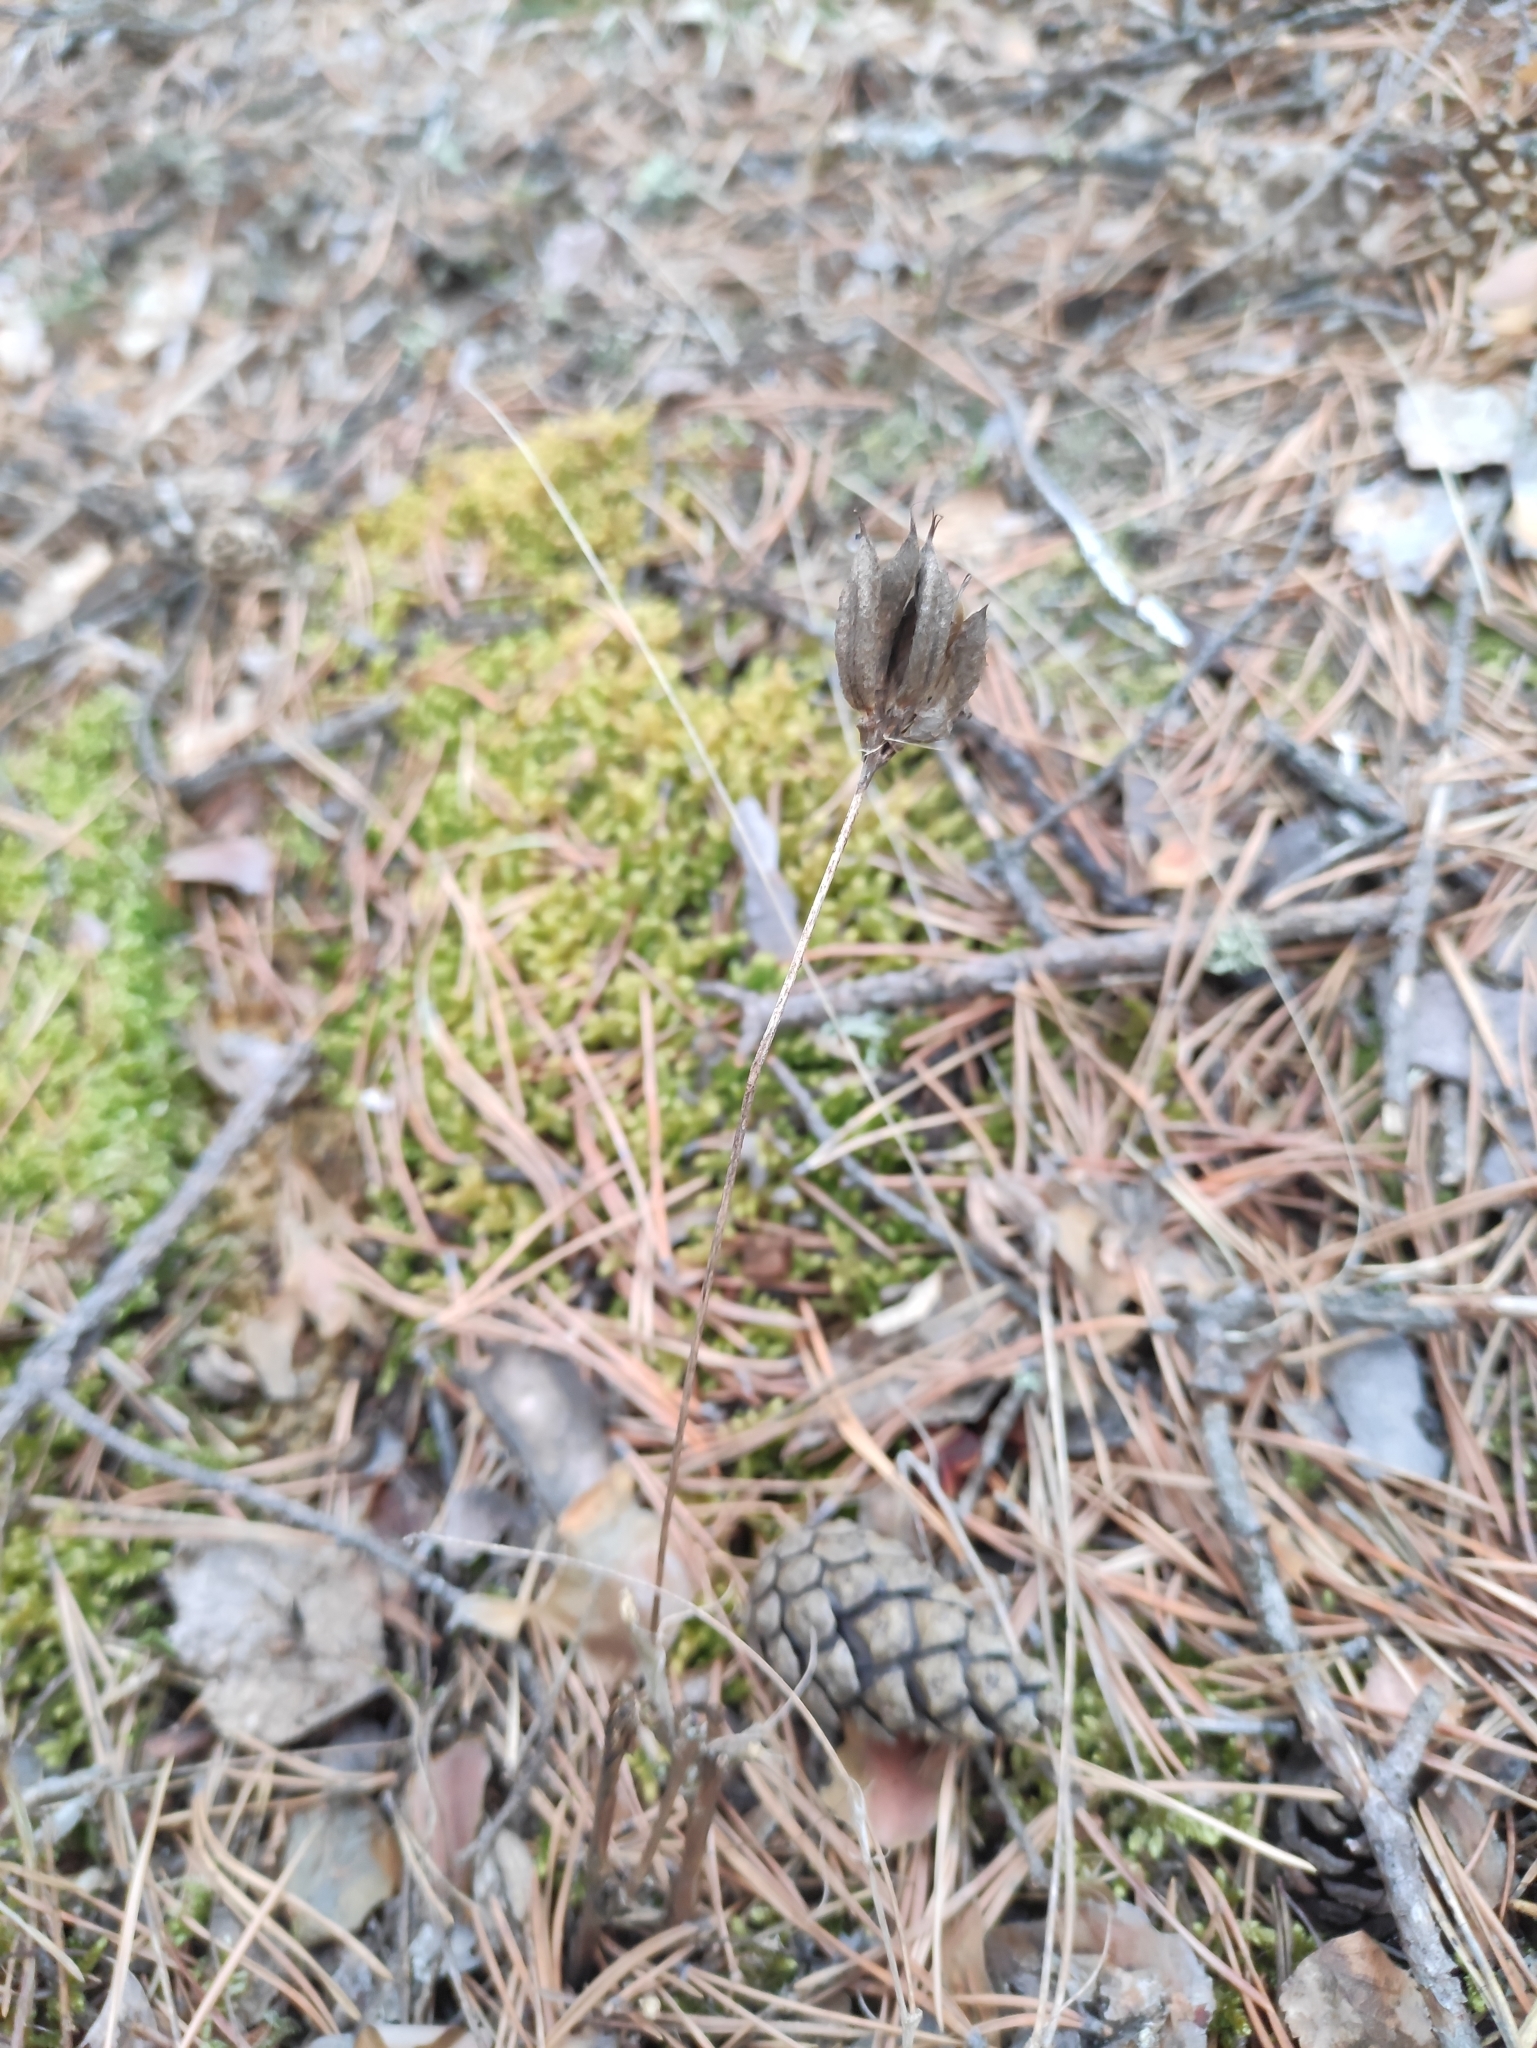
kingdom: Plantae
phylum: Tracheophyta
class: Magnoliopsida
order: Fabales
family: Fabaceae
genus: Astragalus
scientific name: Astragalus syriacus
